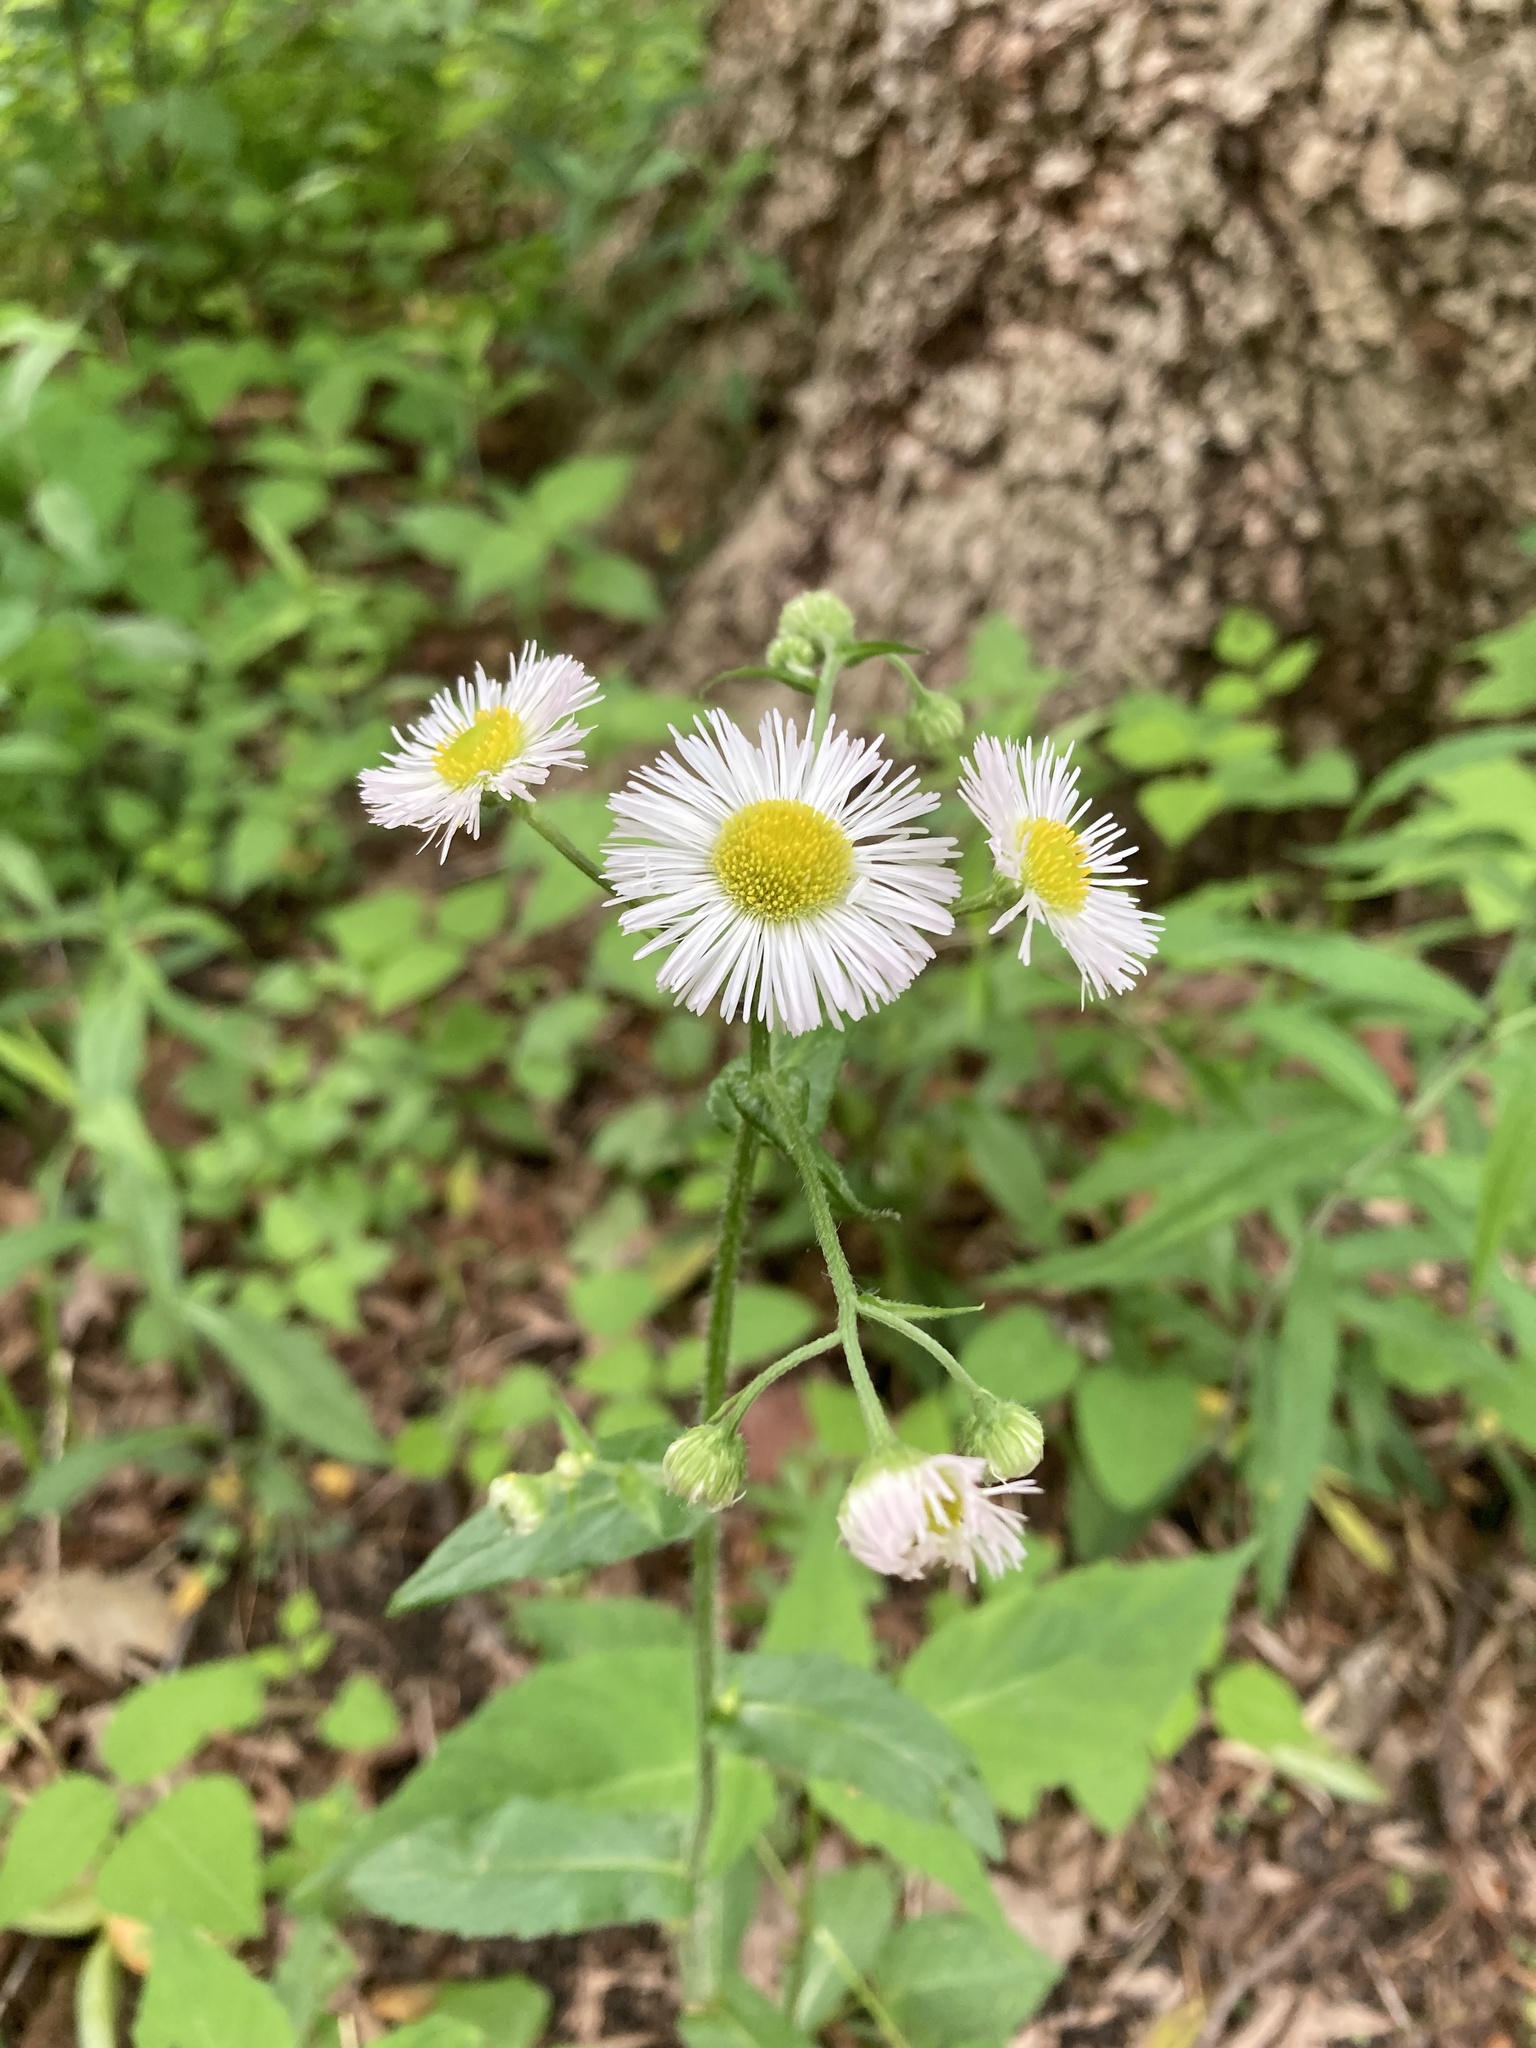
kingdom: Plantae
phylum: Tracheophyta
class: Magnoliopsida
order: Asterales
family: Asteraceae
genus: Erigeron
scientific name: Erigeron philadelphicus
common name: Robin's-plantain
